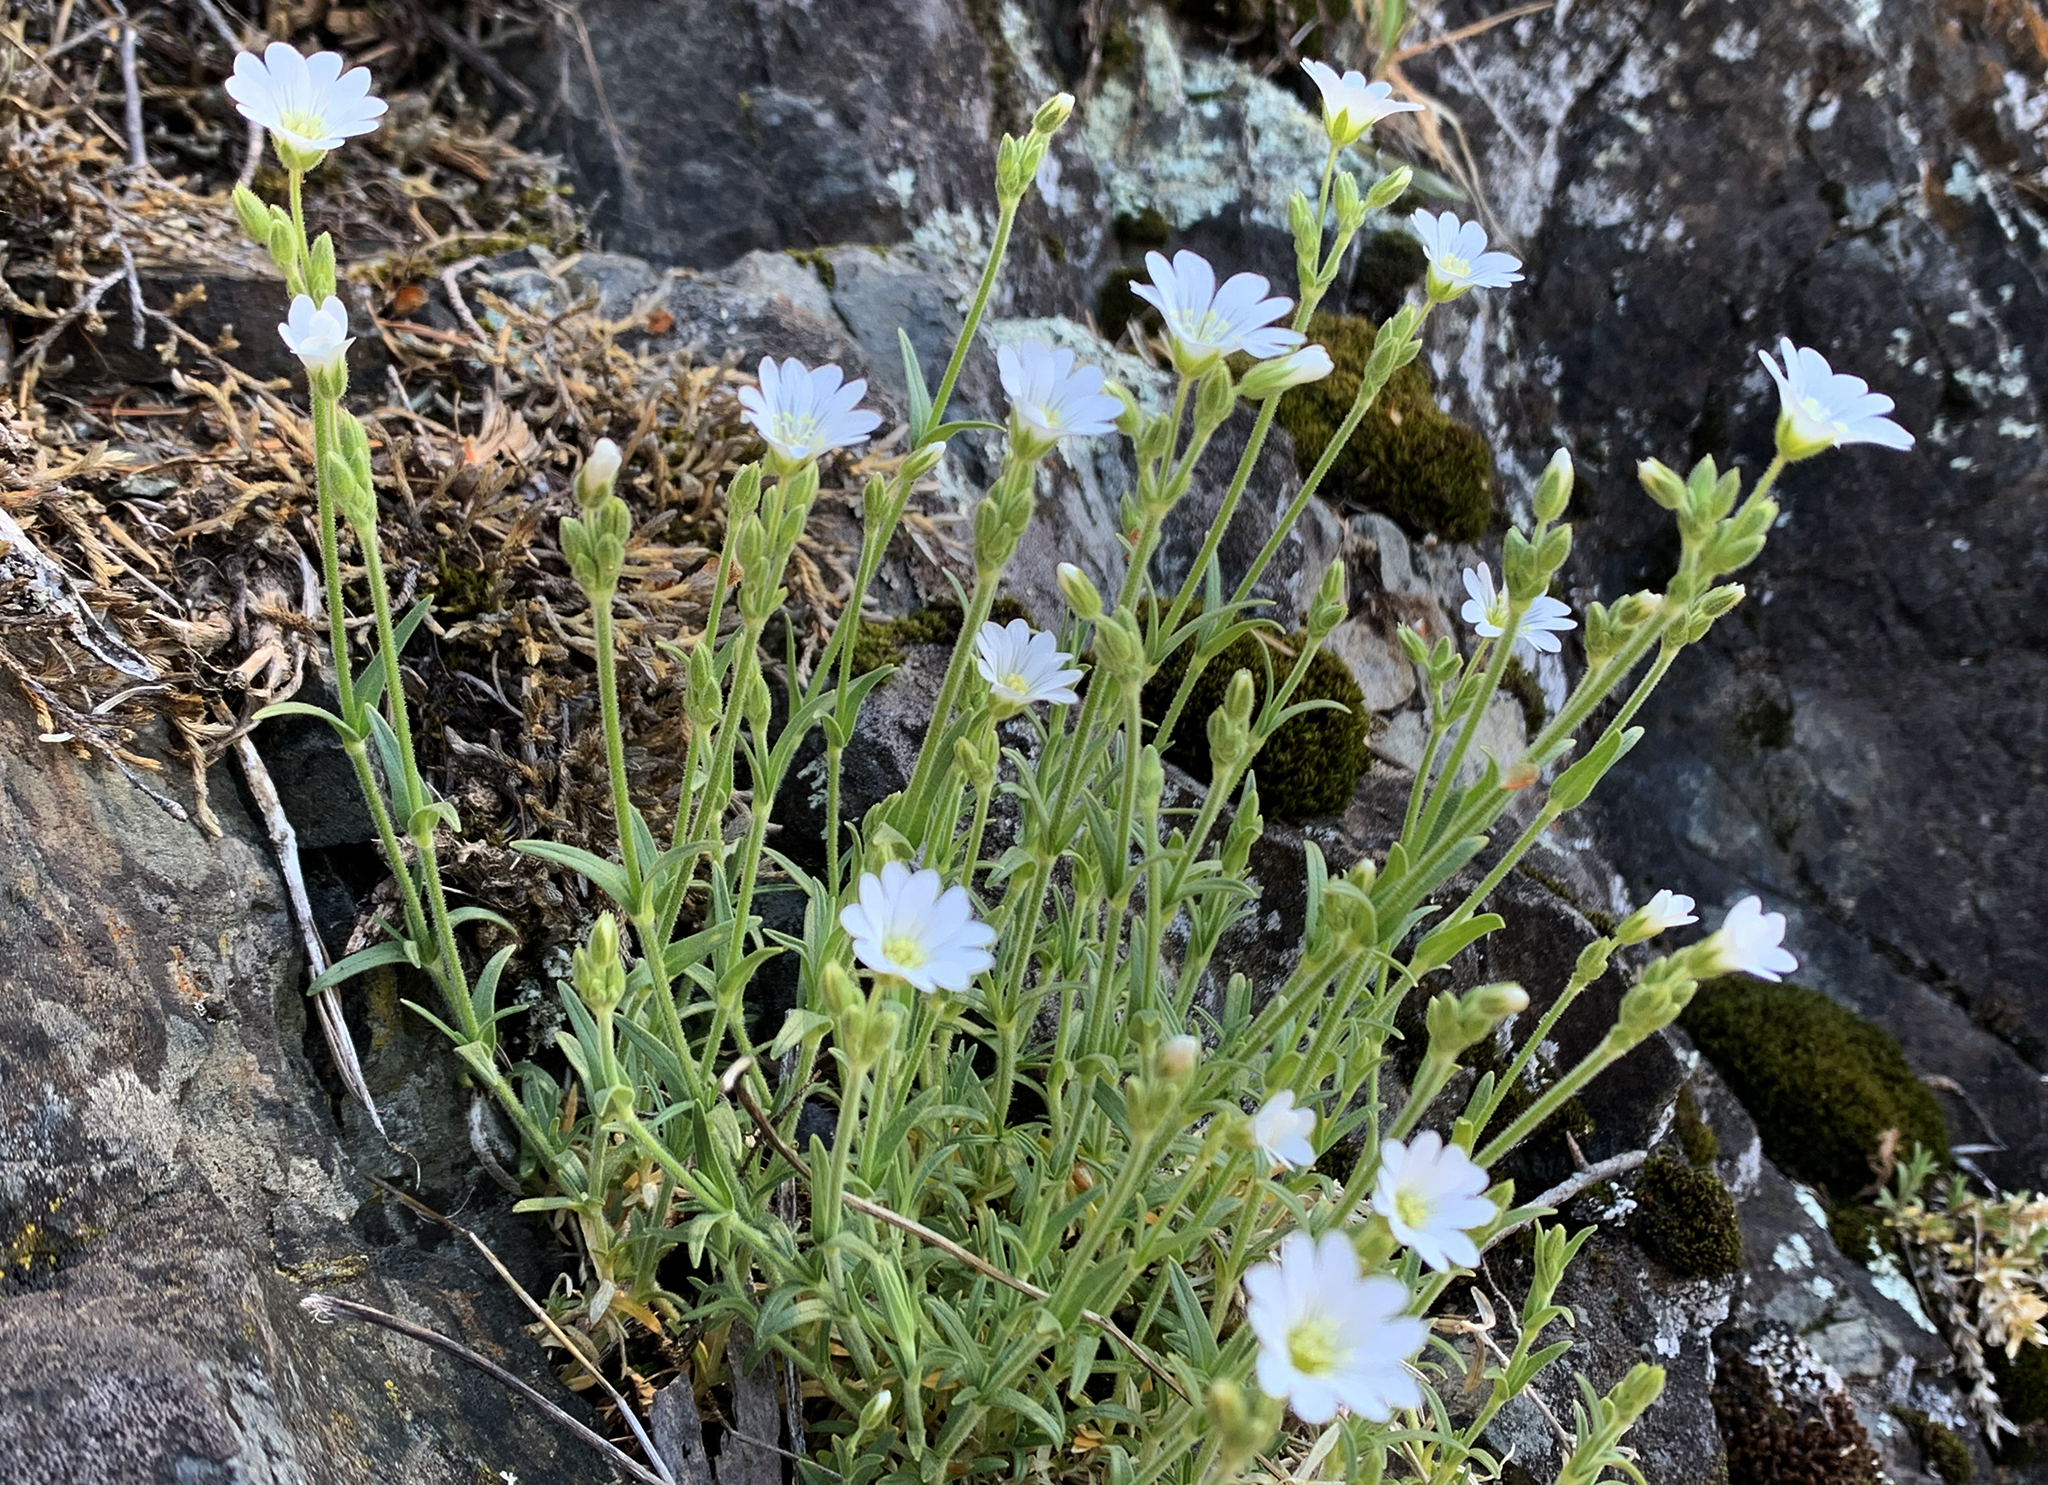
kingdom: Plantae
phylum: Tracheophyta
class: Magnoliopsida
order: Caryophyllales
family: Caryophyllaceae
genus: Cerastium
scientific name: Cerastium arvense
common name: Field mouse-ear
